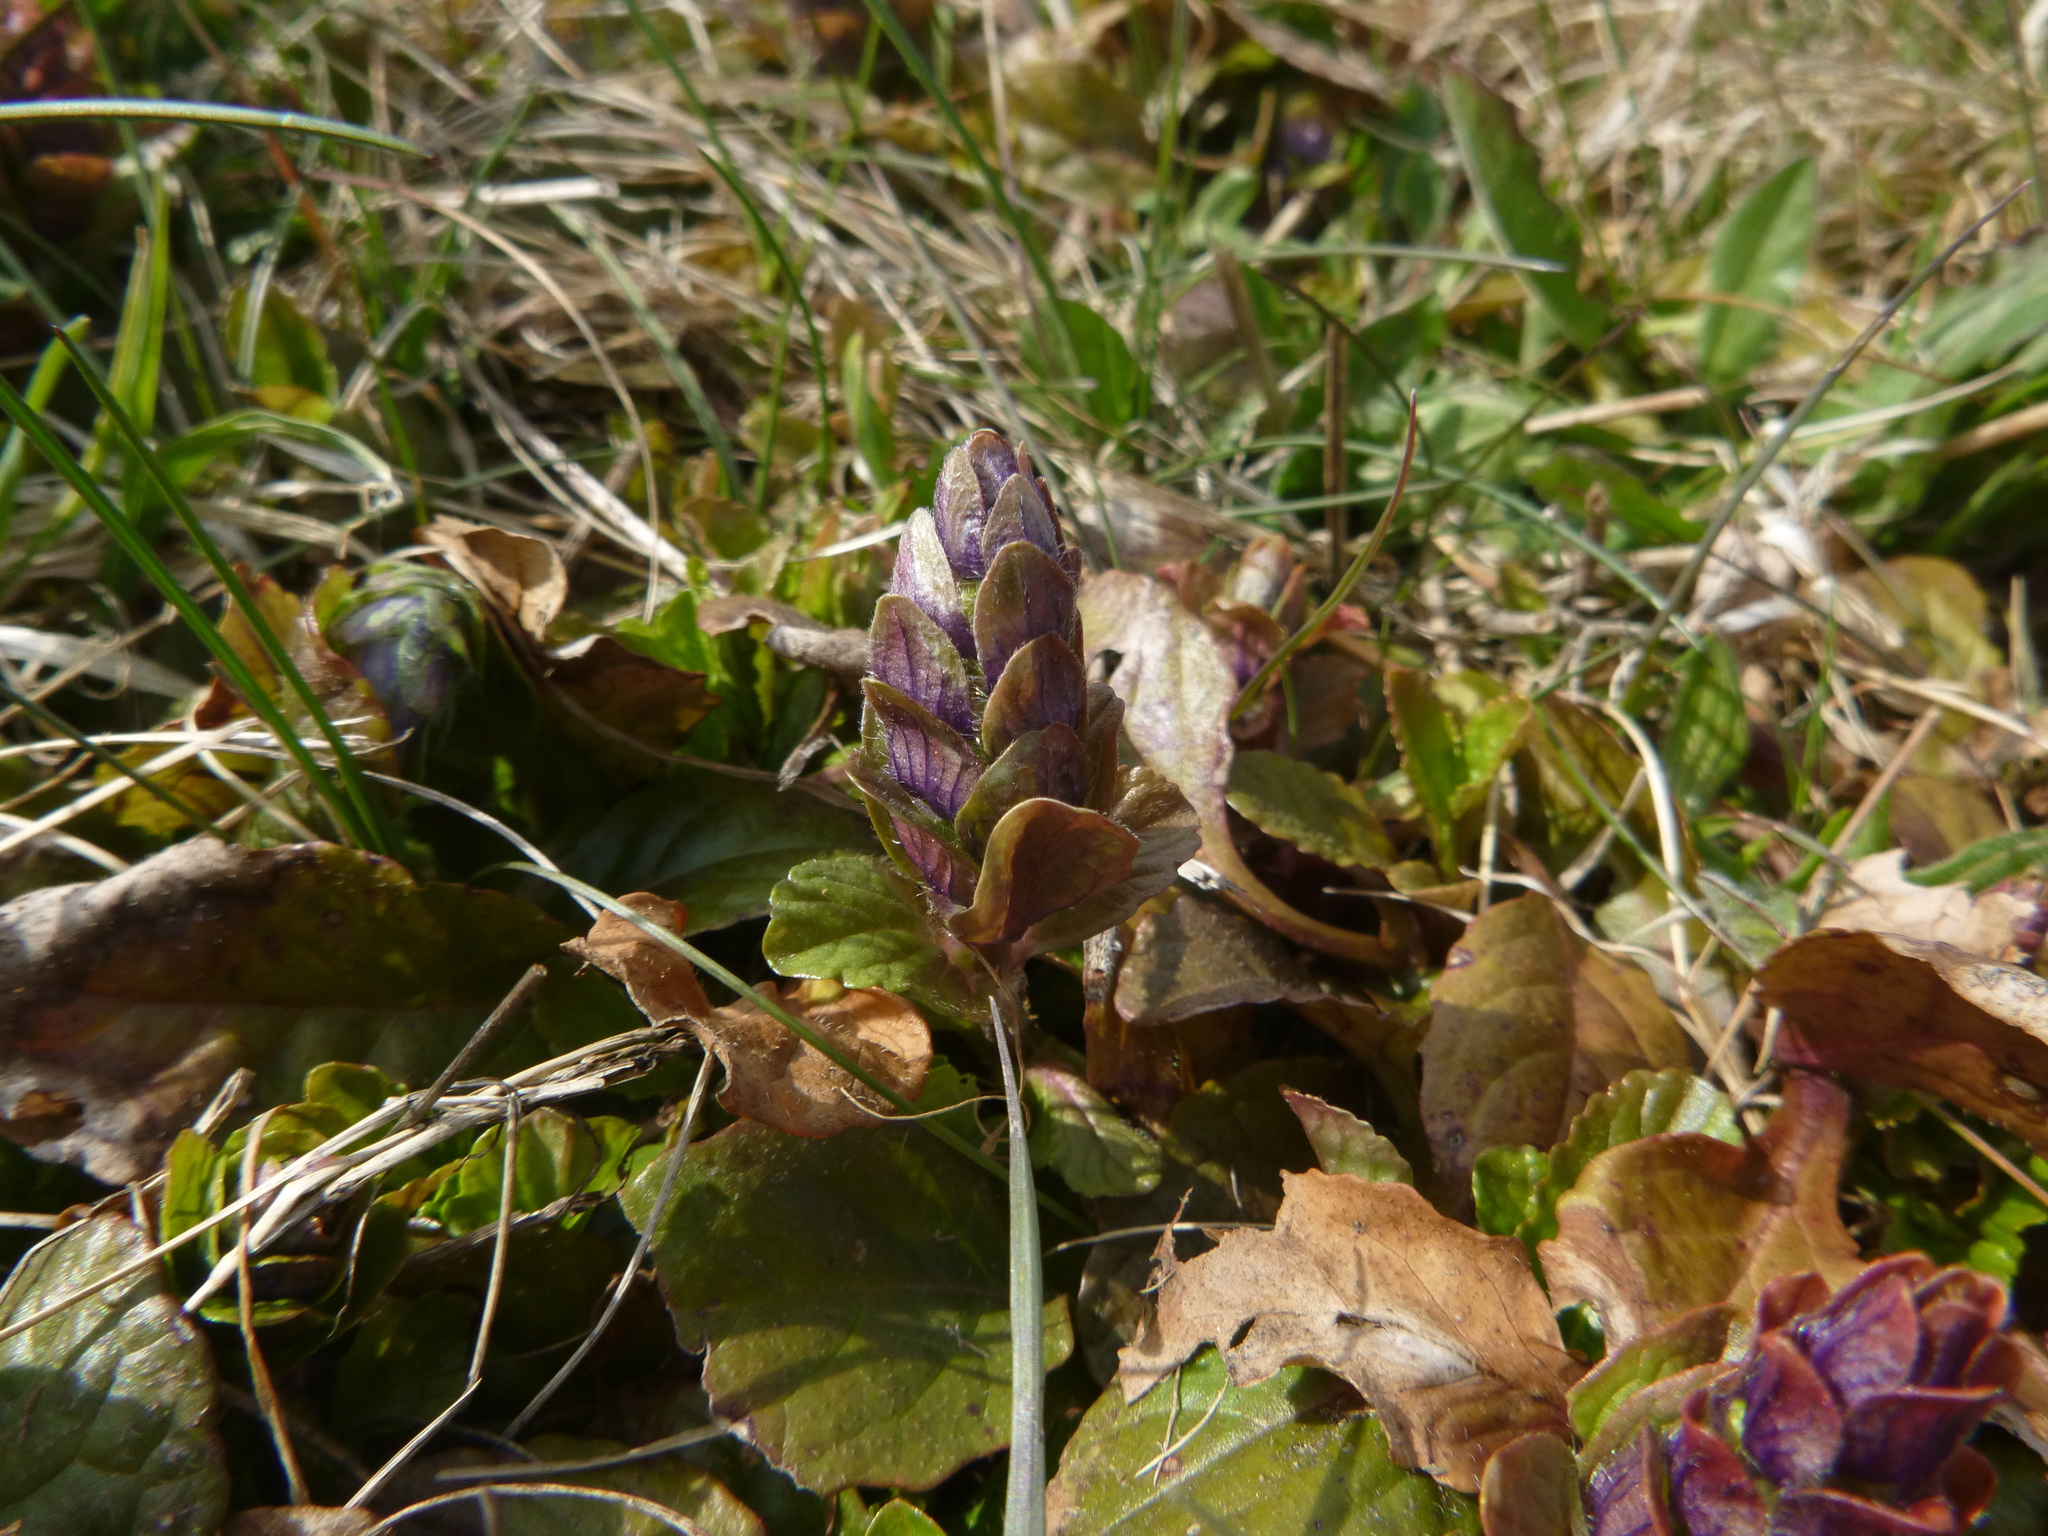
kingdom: Plantae
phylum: Tracheophyta
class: Magnoliopsida
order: Lamiales
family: Lamiaceae
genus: Ajuga
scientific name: Ajuga reptans
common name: Bugle
